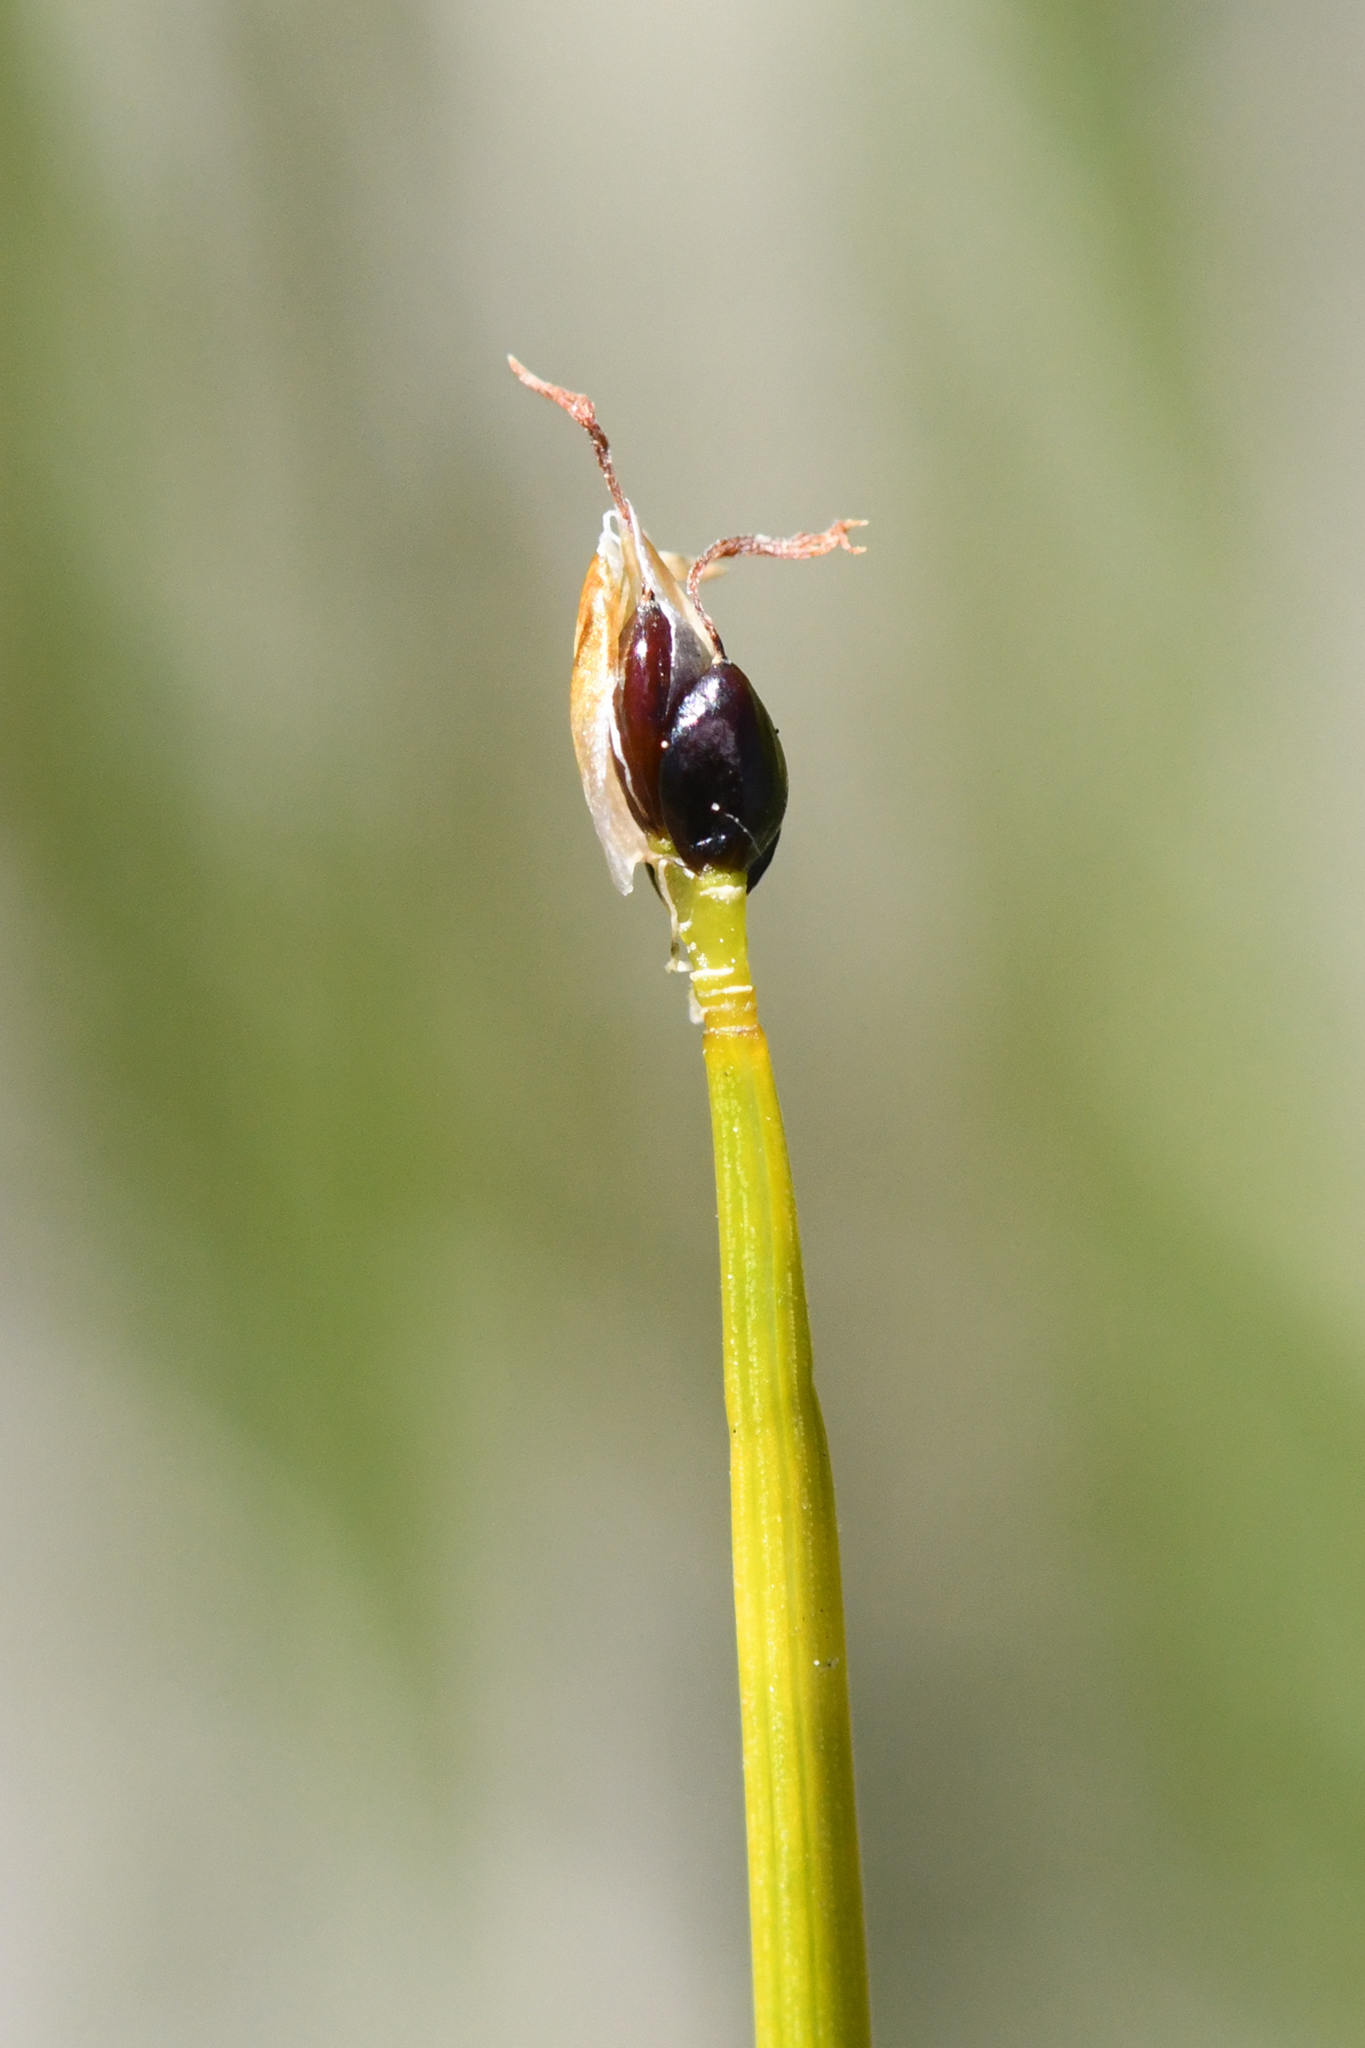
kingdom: Plantae
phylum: Tracheophyta
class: Liliopsida
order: Poales
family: Cyperaceae
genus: Trichophorum
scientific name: Trichophorum pumilum
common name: Rolland's bulrush
